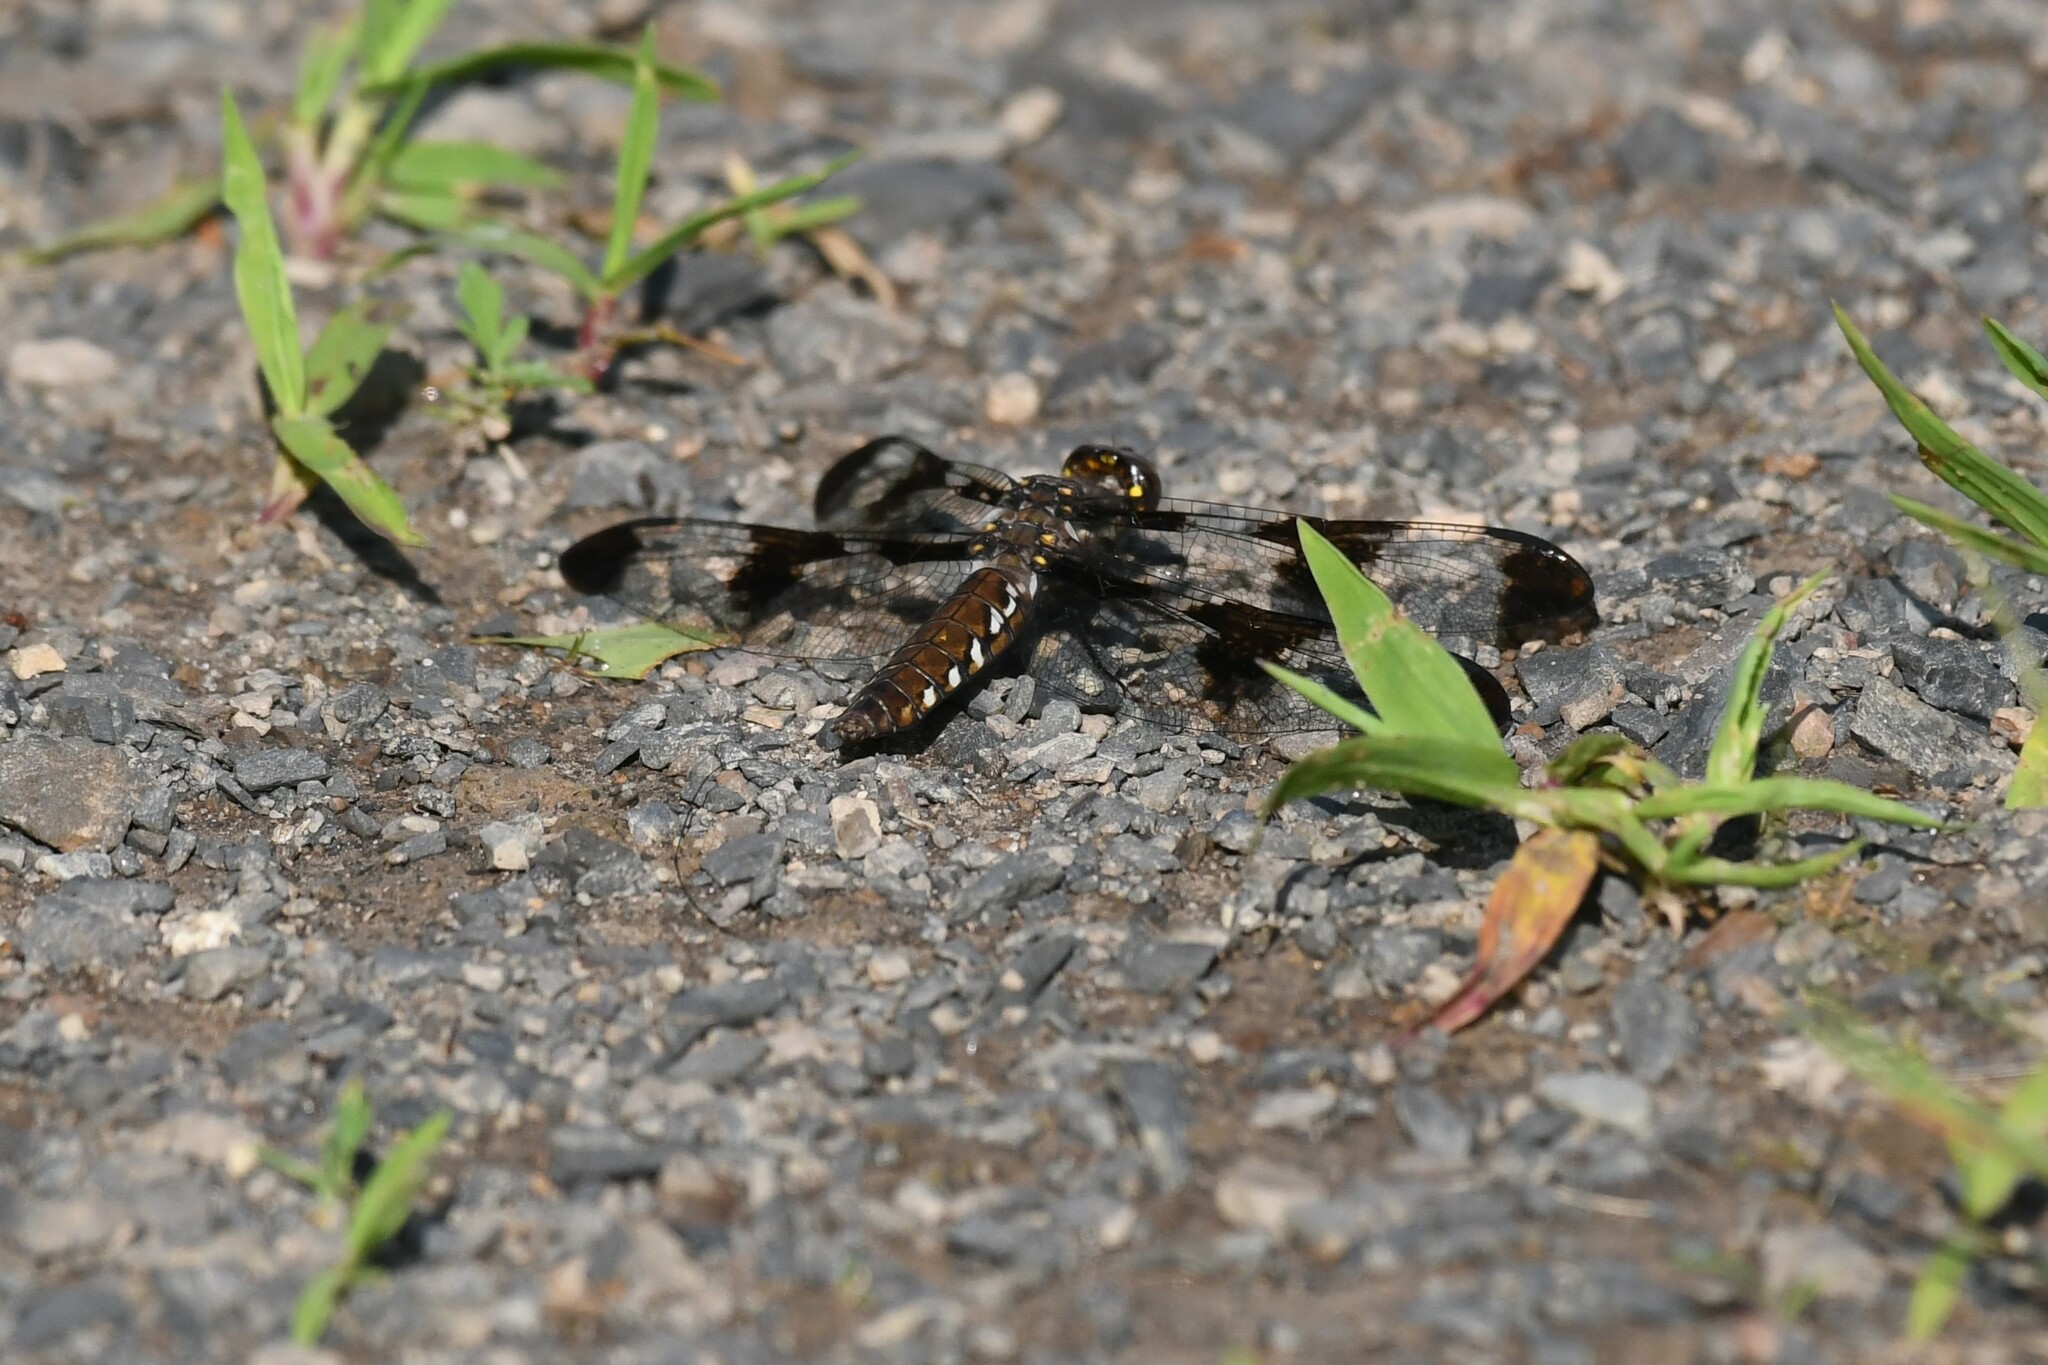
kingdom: Animalia
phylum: Arthropoda
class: Insecta
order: Odonata
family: Libellulidae
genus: Plathemis
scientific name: Plathemis lydia
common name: Common whitetail
